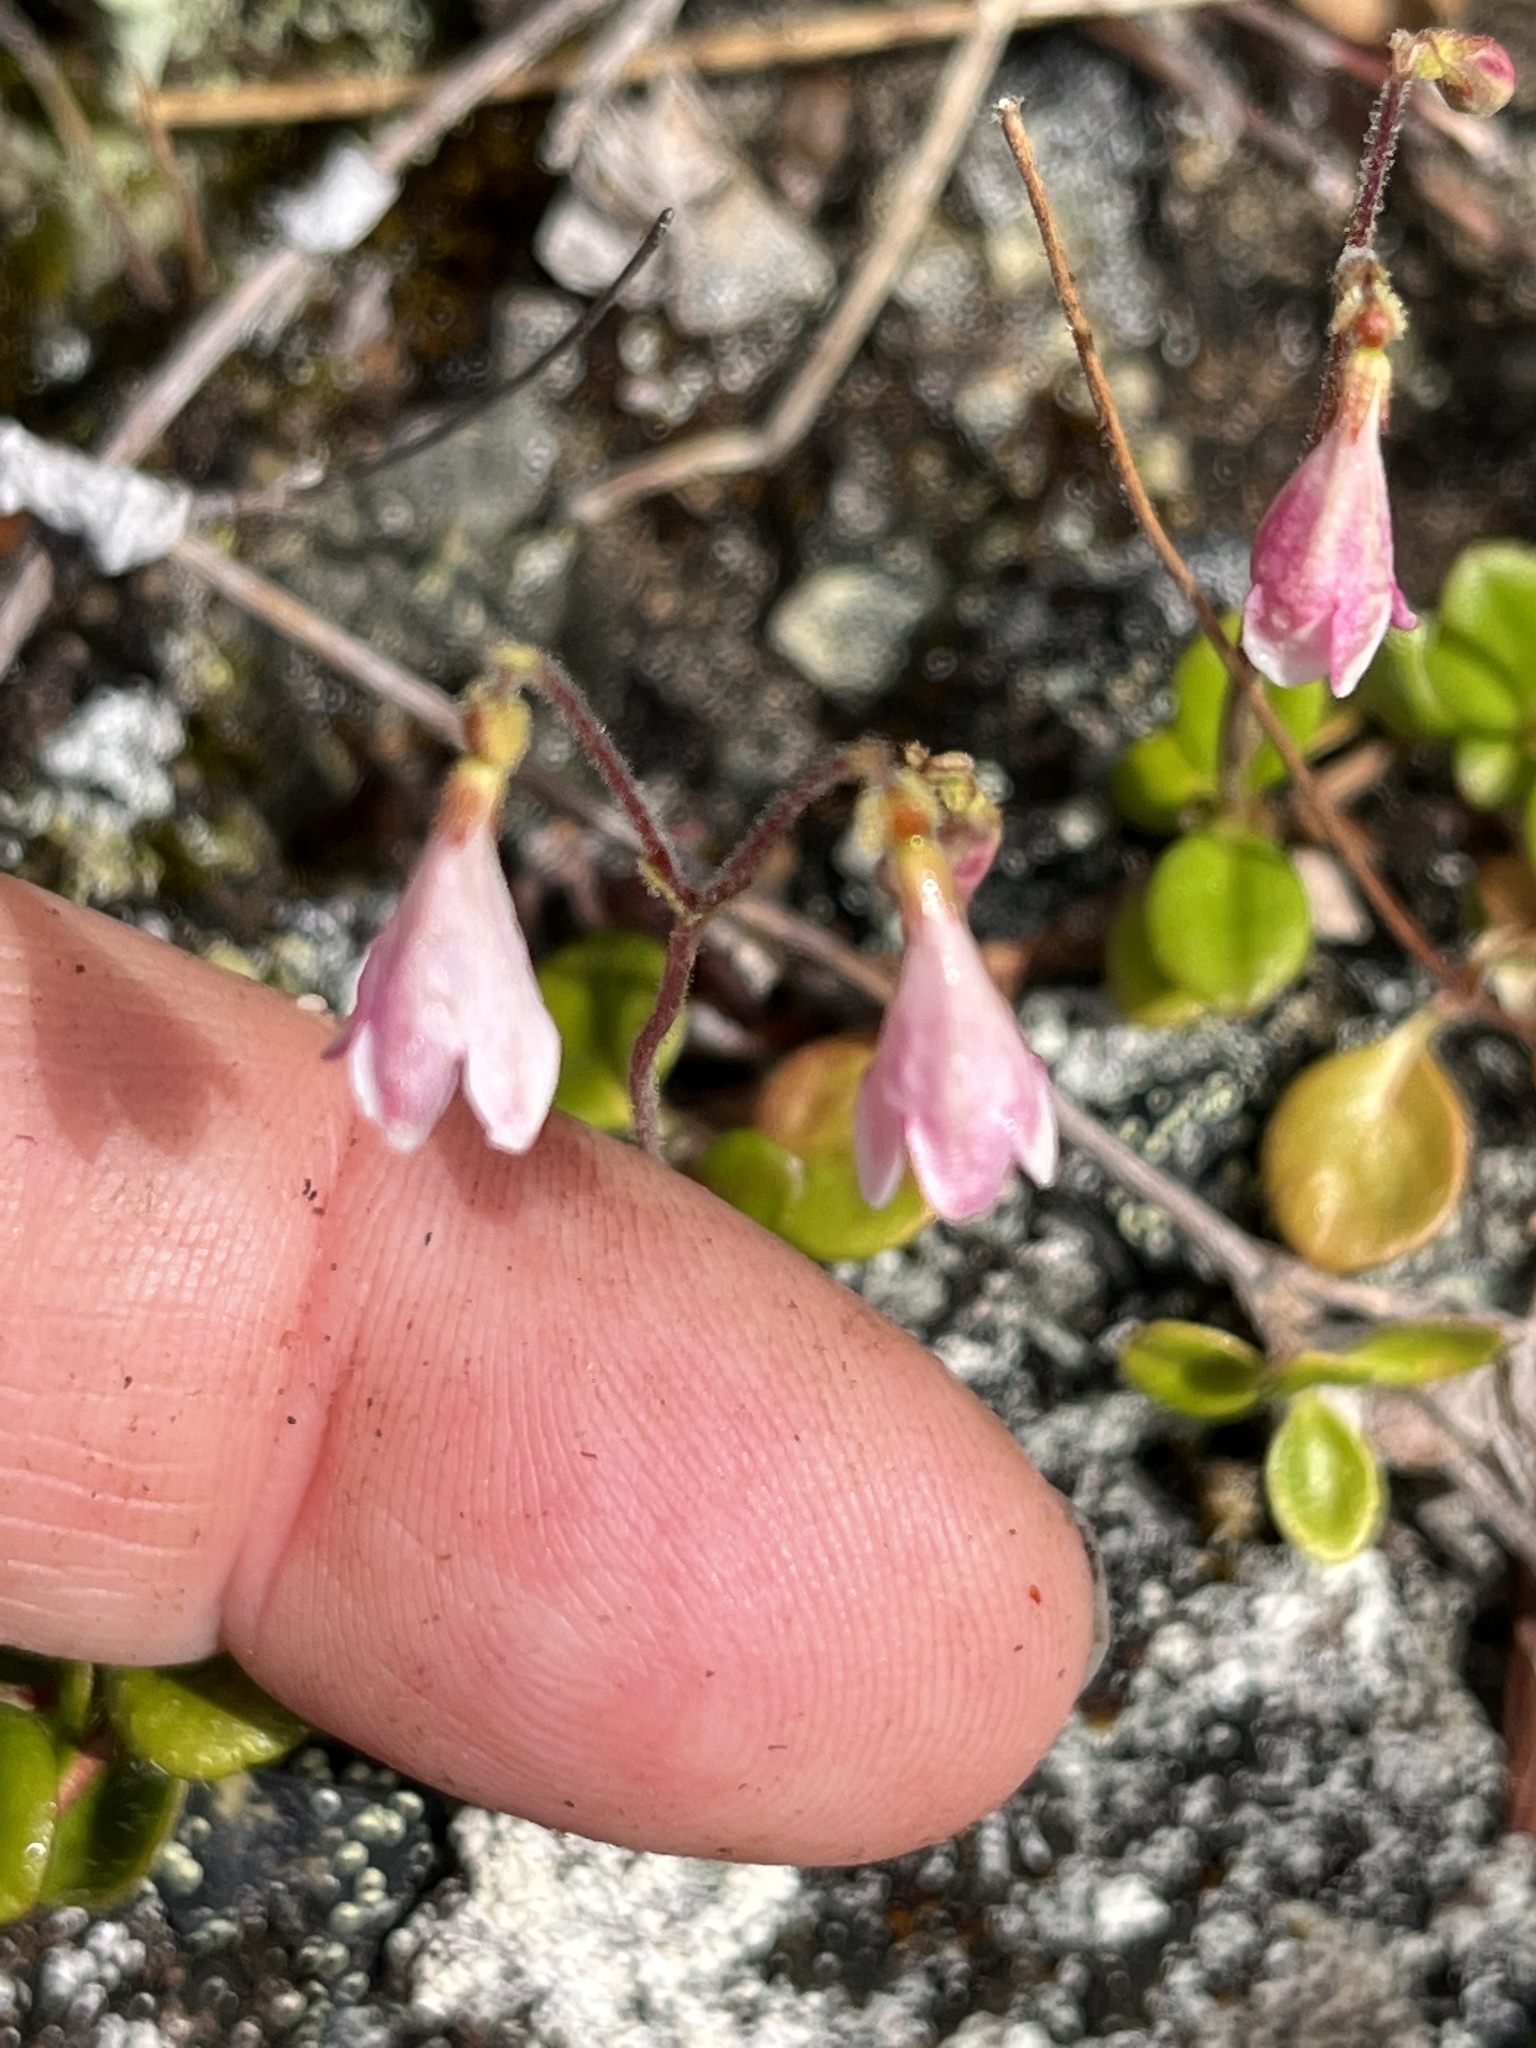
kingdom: Plantae
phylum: Tracheophyta
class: Magnoliopsida
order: Dipsacales
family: Caprifoliaceae
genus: Linnaea
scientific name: Linnaea borealis
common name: Twinflower
